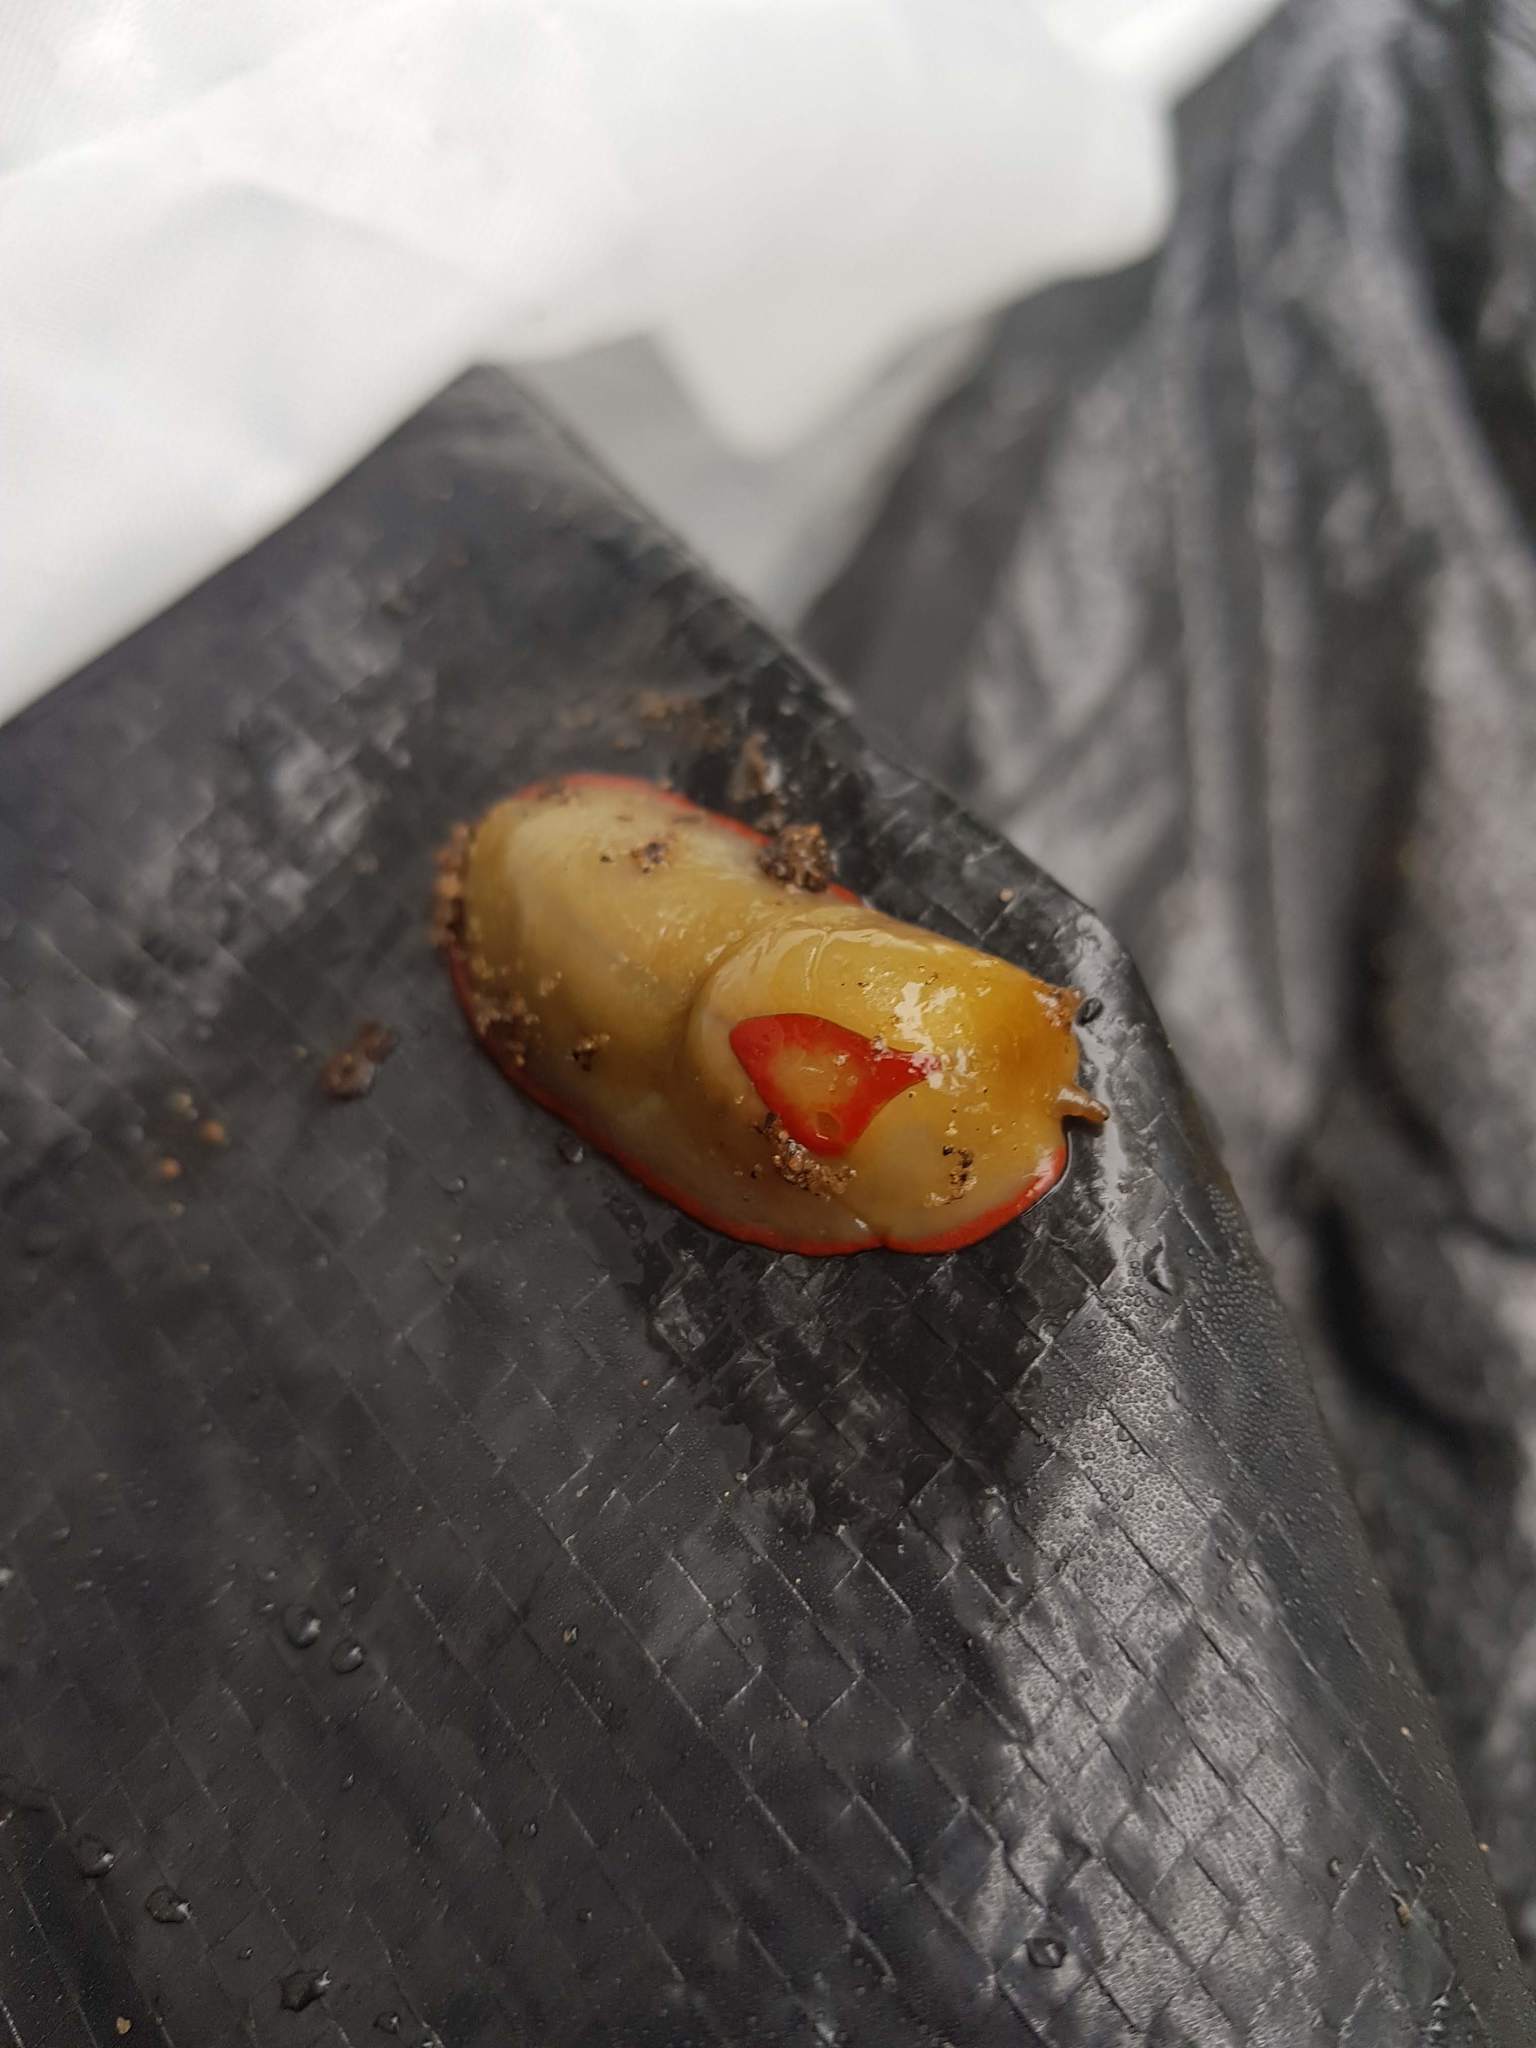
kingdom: Animalia
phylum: Mollusca
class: Gastropoda
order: Stylommatophora
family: Athoracophoridae
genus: Triboniophorus
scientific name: Triboniophorus graeffei
